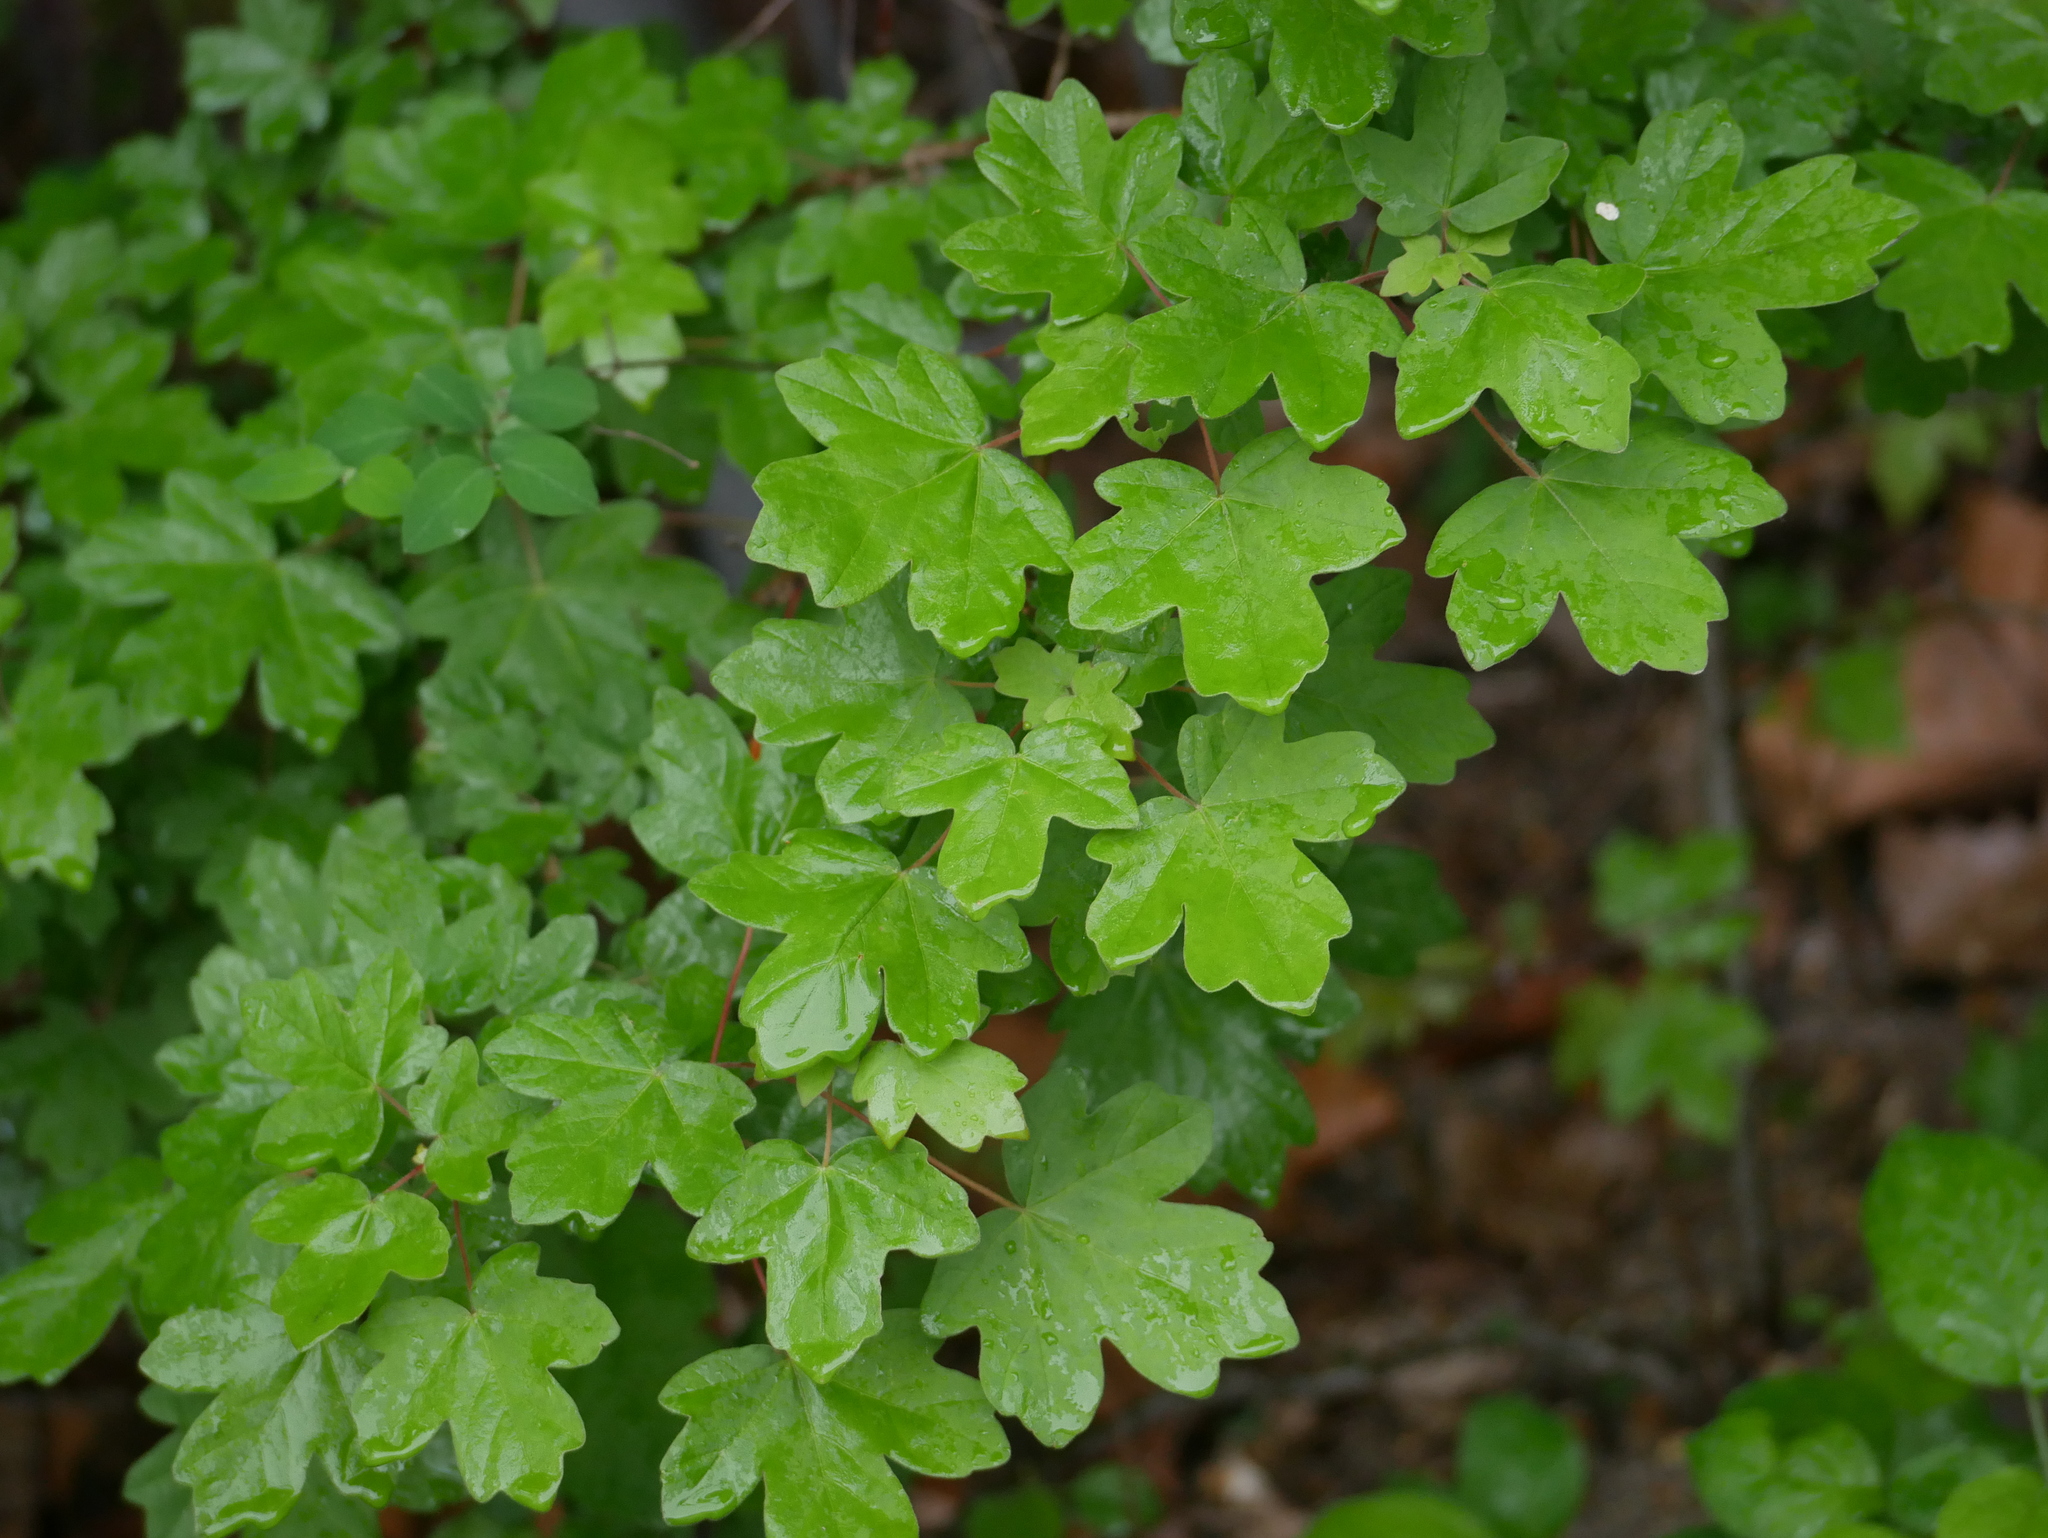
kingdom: Plantae
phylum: Tracheophyta
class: Magnoliopsida
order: Sapindales
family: Sapindaceae
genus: Acer
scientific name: Acer campestre
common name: Field maple
